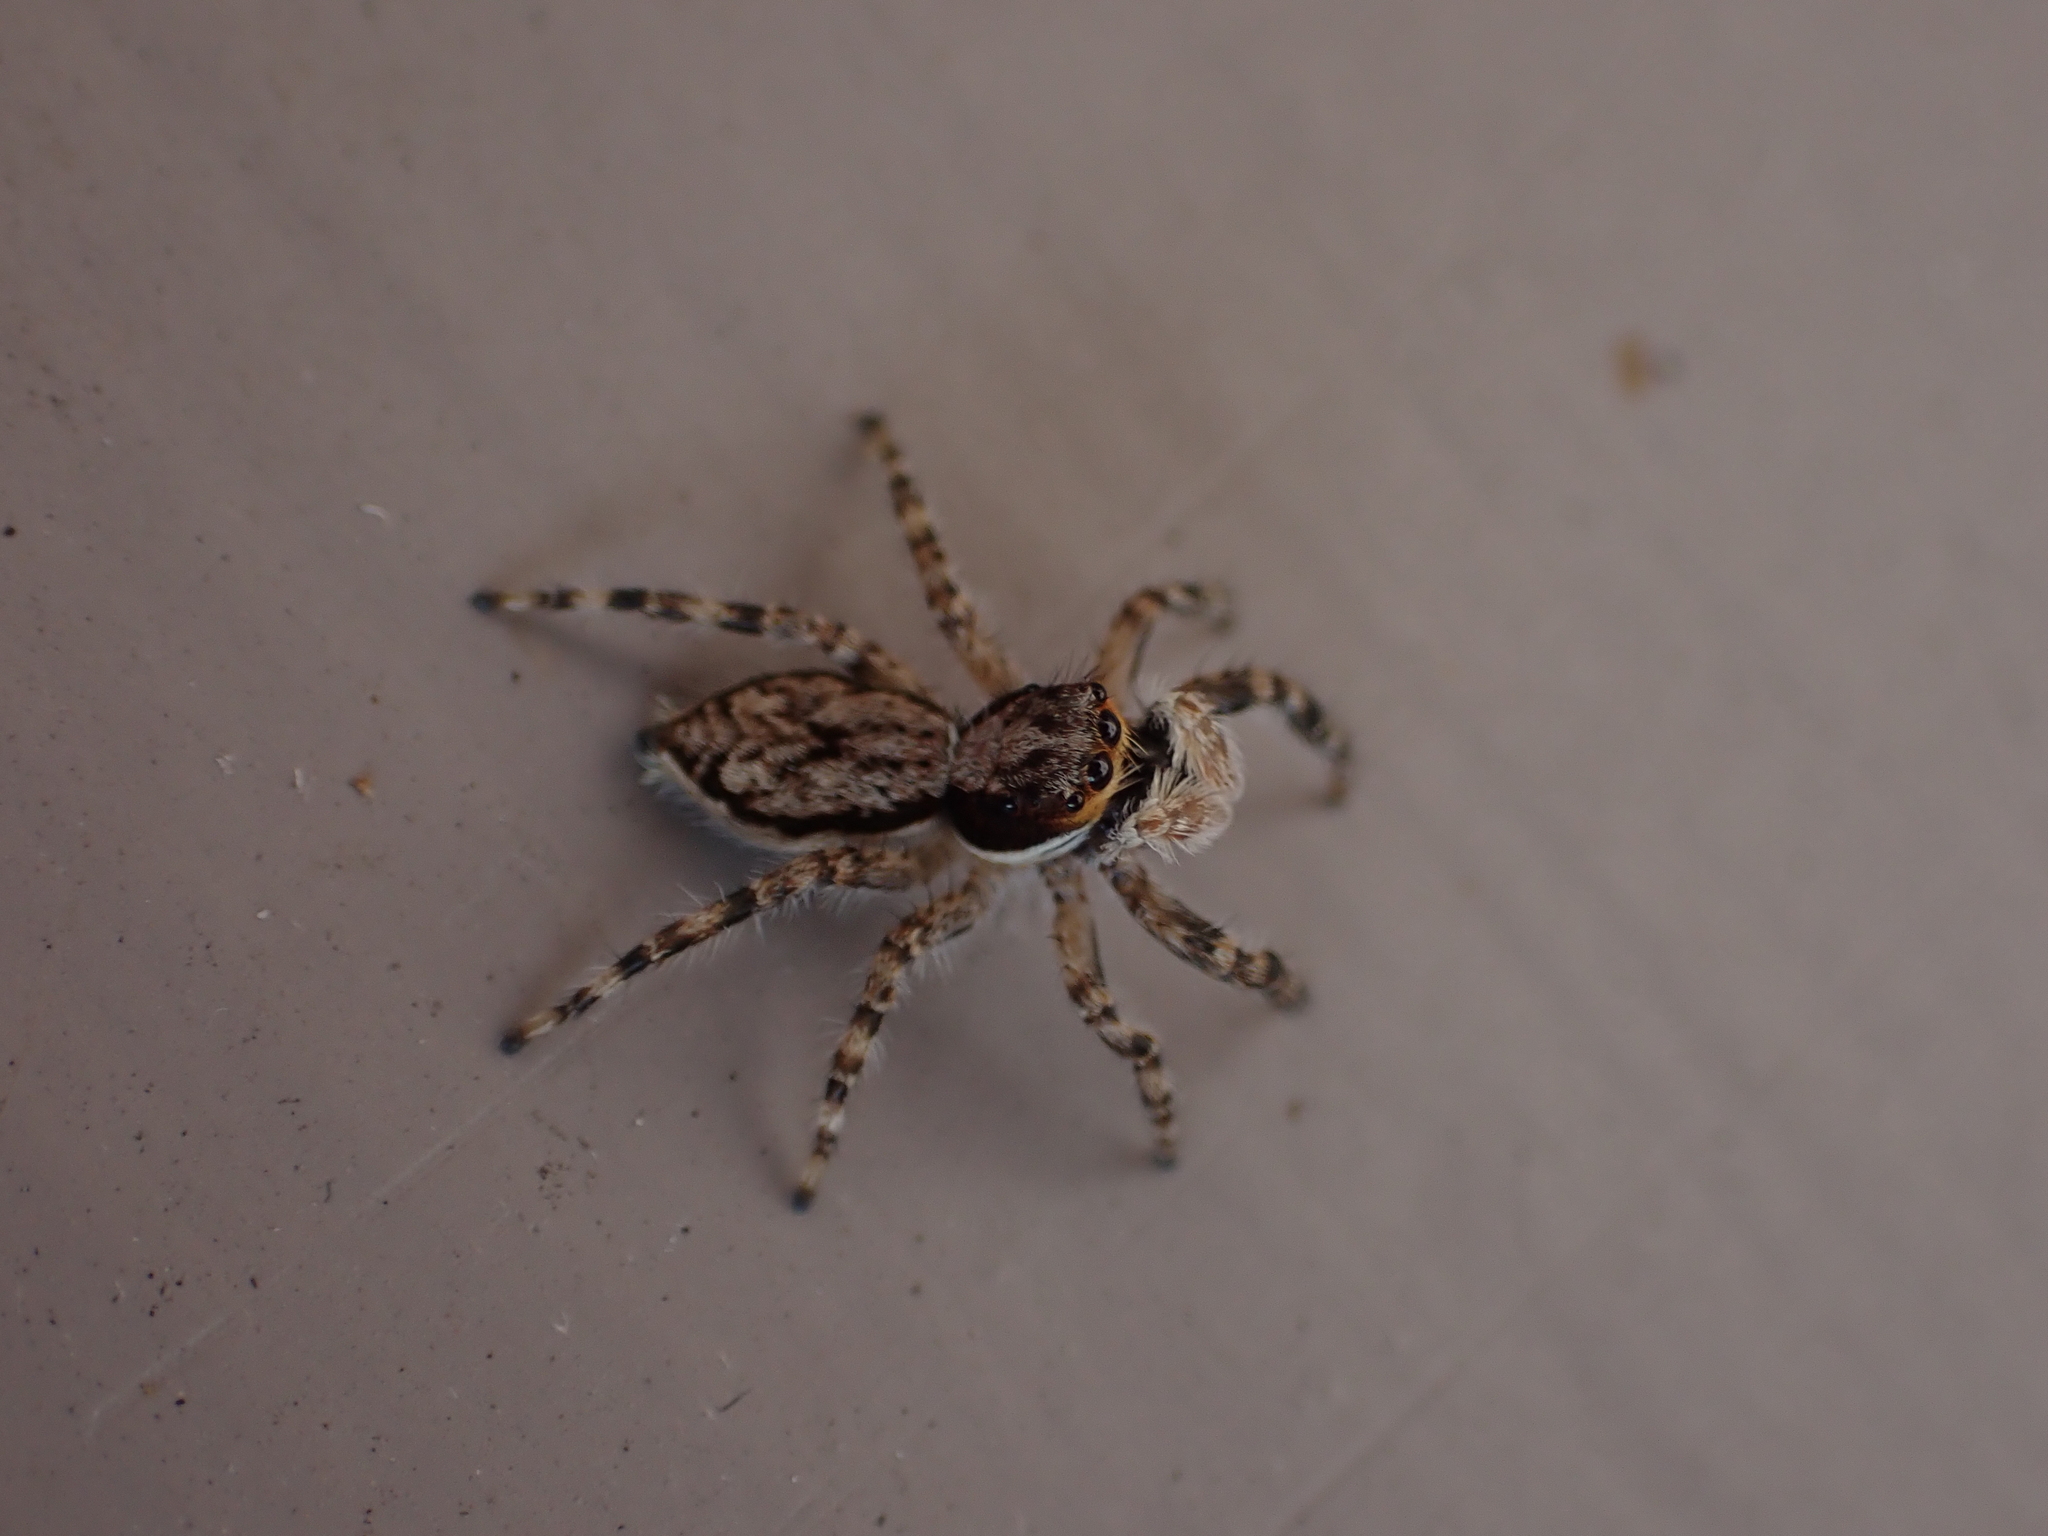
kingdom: Animalia
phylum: Arthropoda
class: Arachnida
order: Araneae
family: Salticidae
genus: Menemerus
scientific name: Menemerus bivittatus
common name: Gray wall jumper
